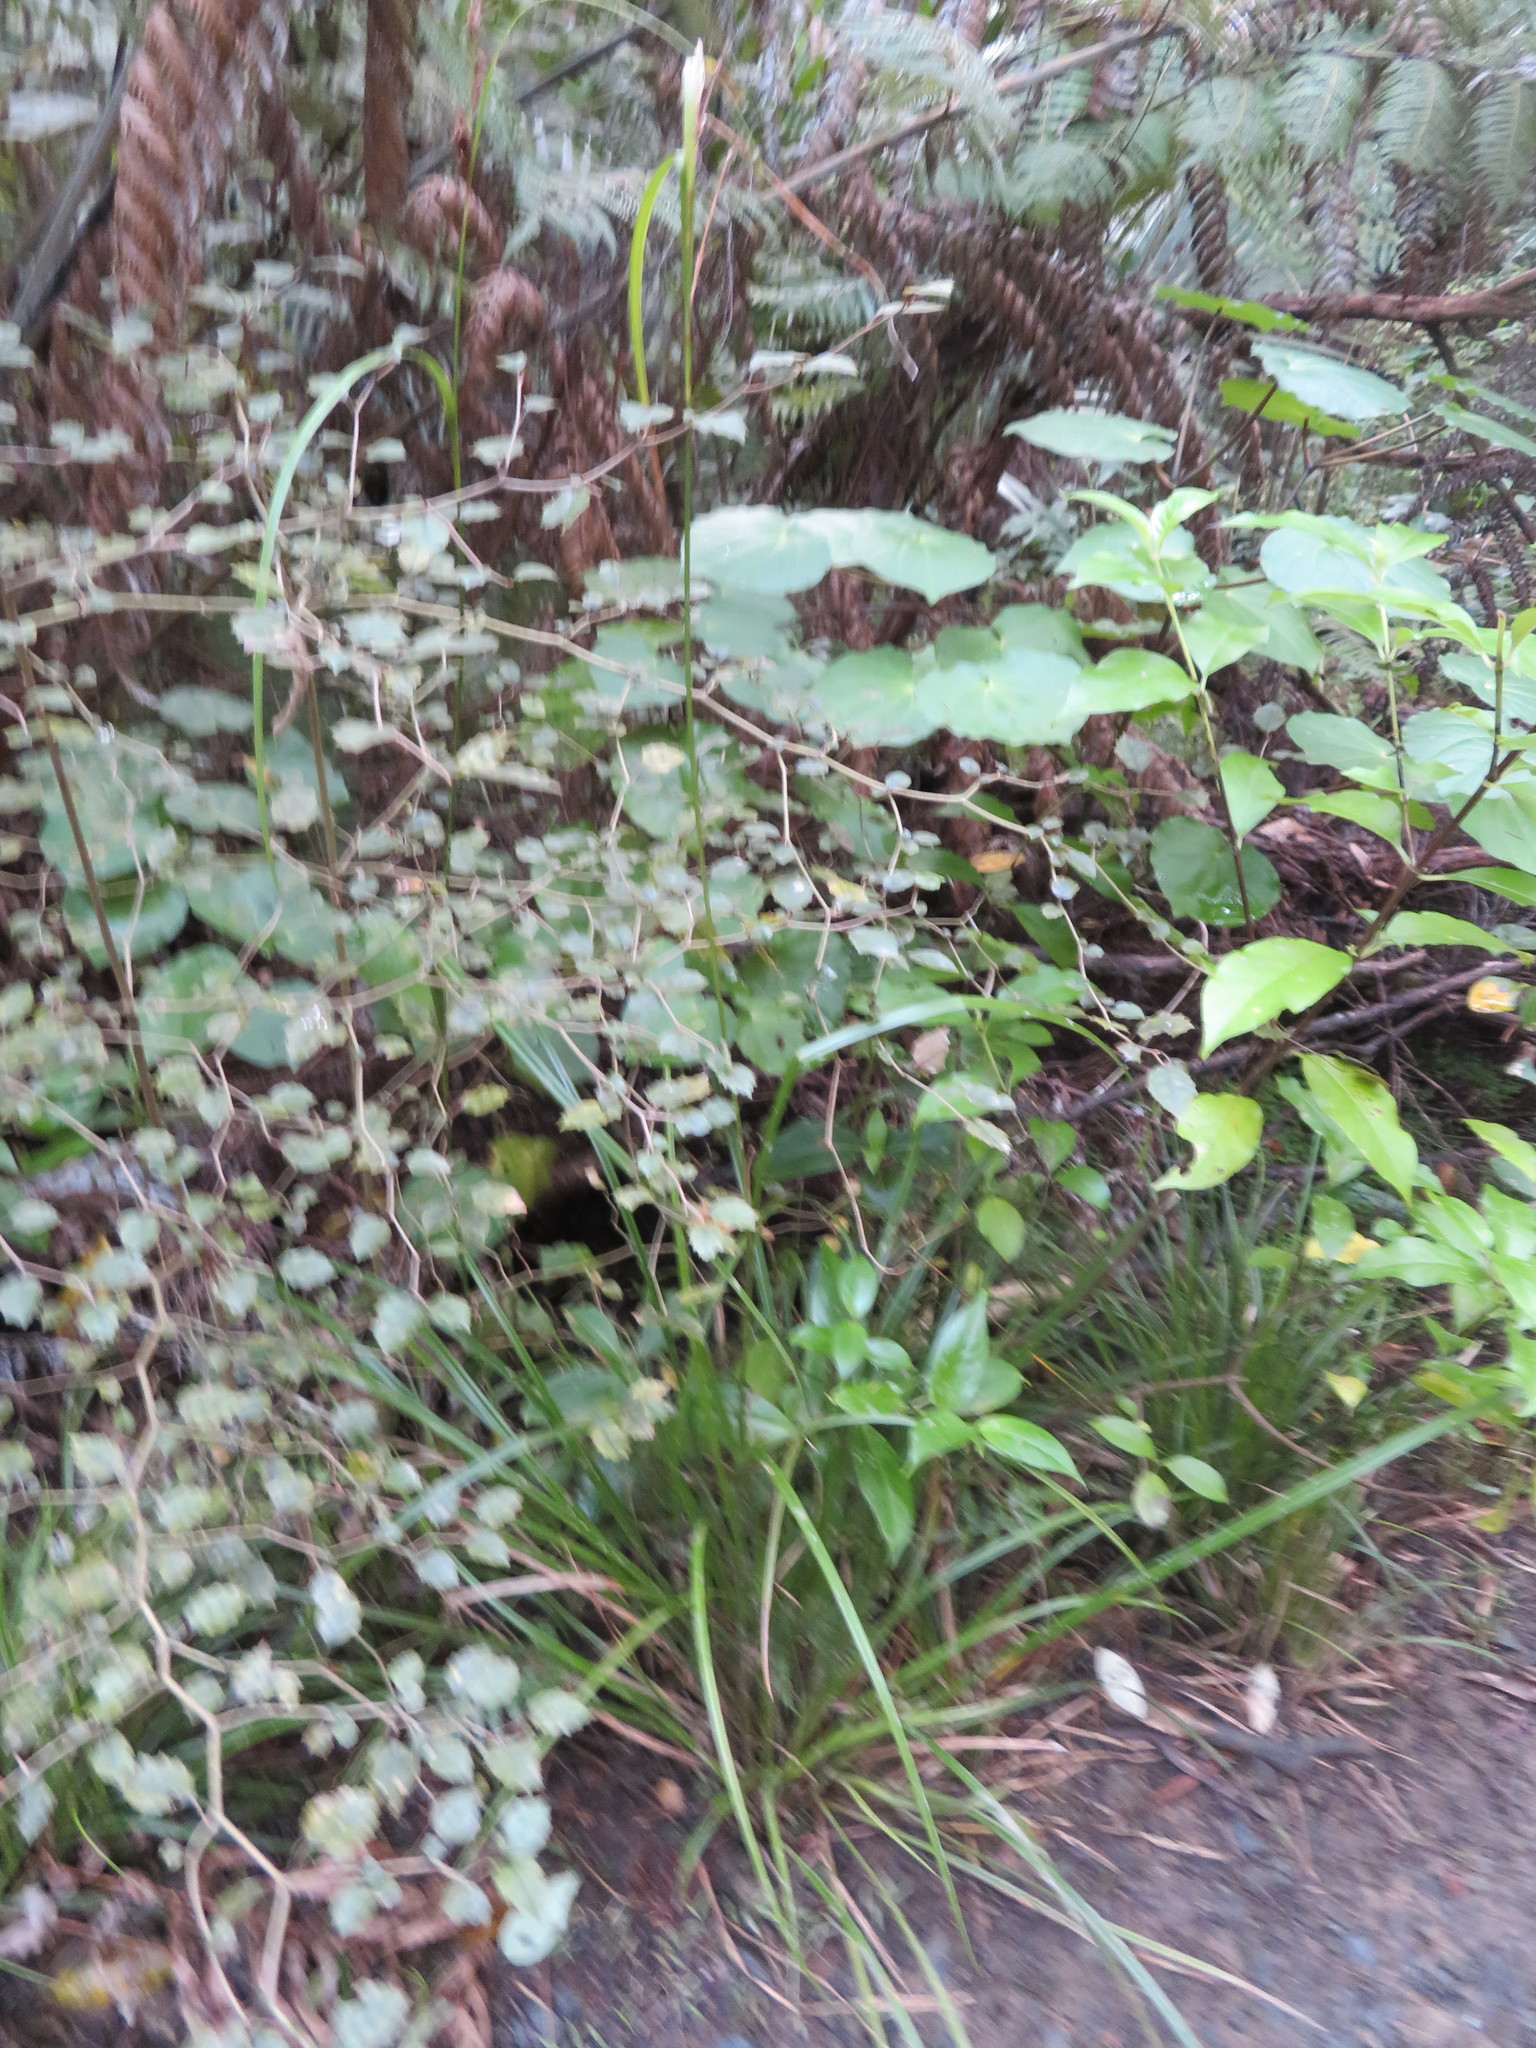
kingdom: Plantae
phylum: Tracheophyta
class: Magnoliopsida
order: Asterales
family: Rousseaceae
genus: Carpodetus
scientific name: Carpodetus serratus
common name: White mapau
